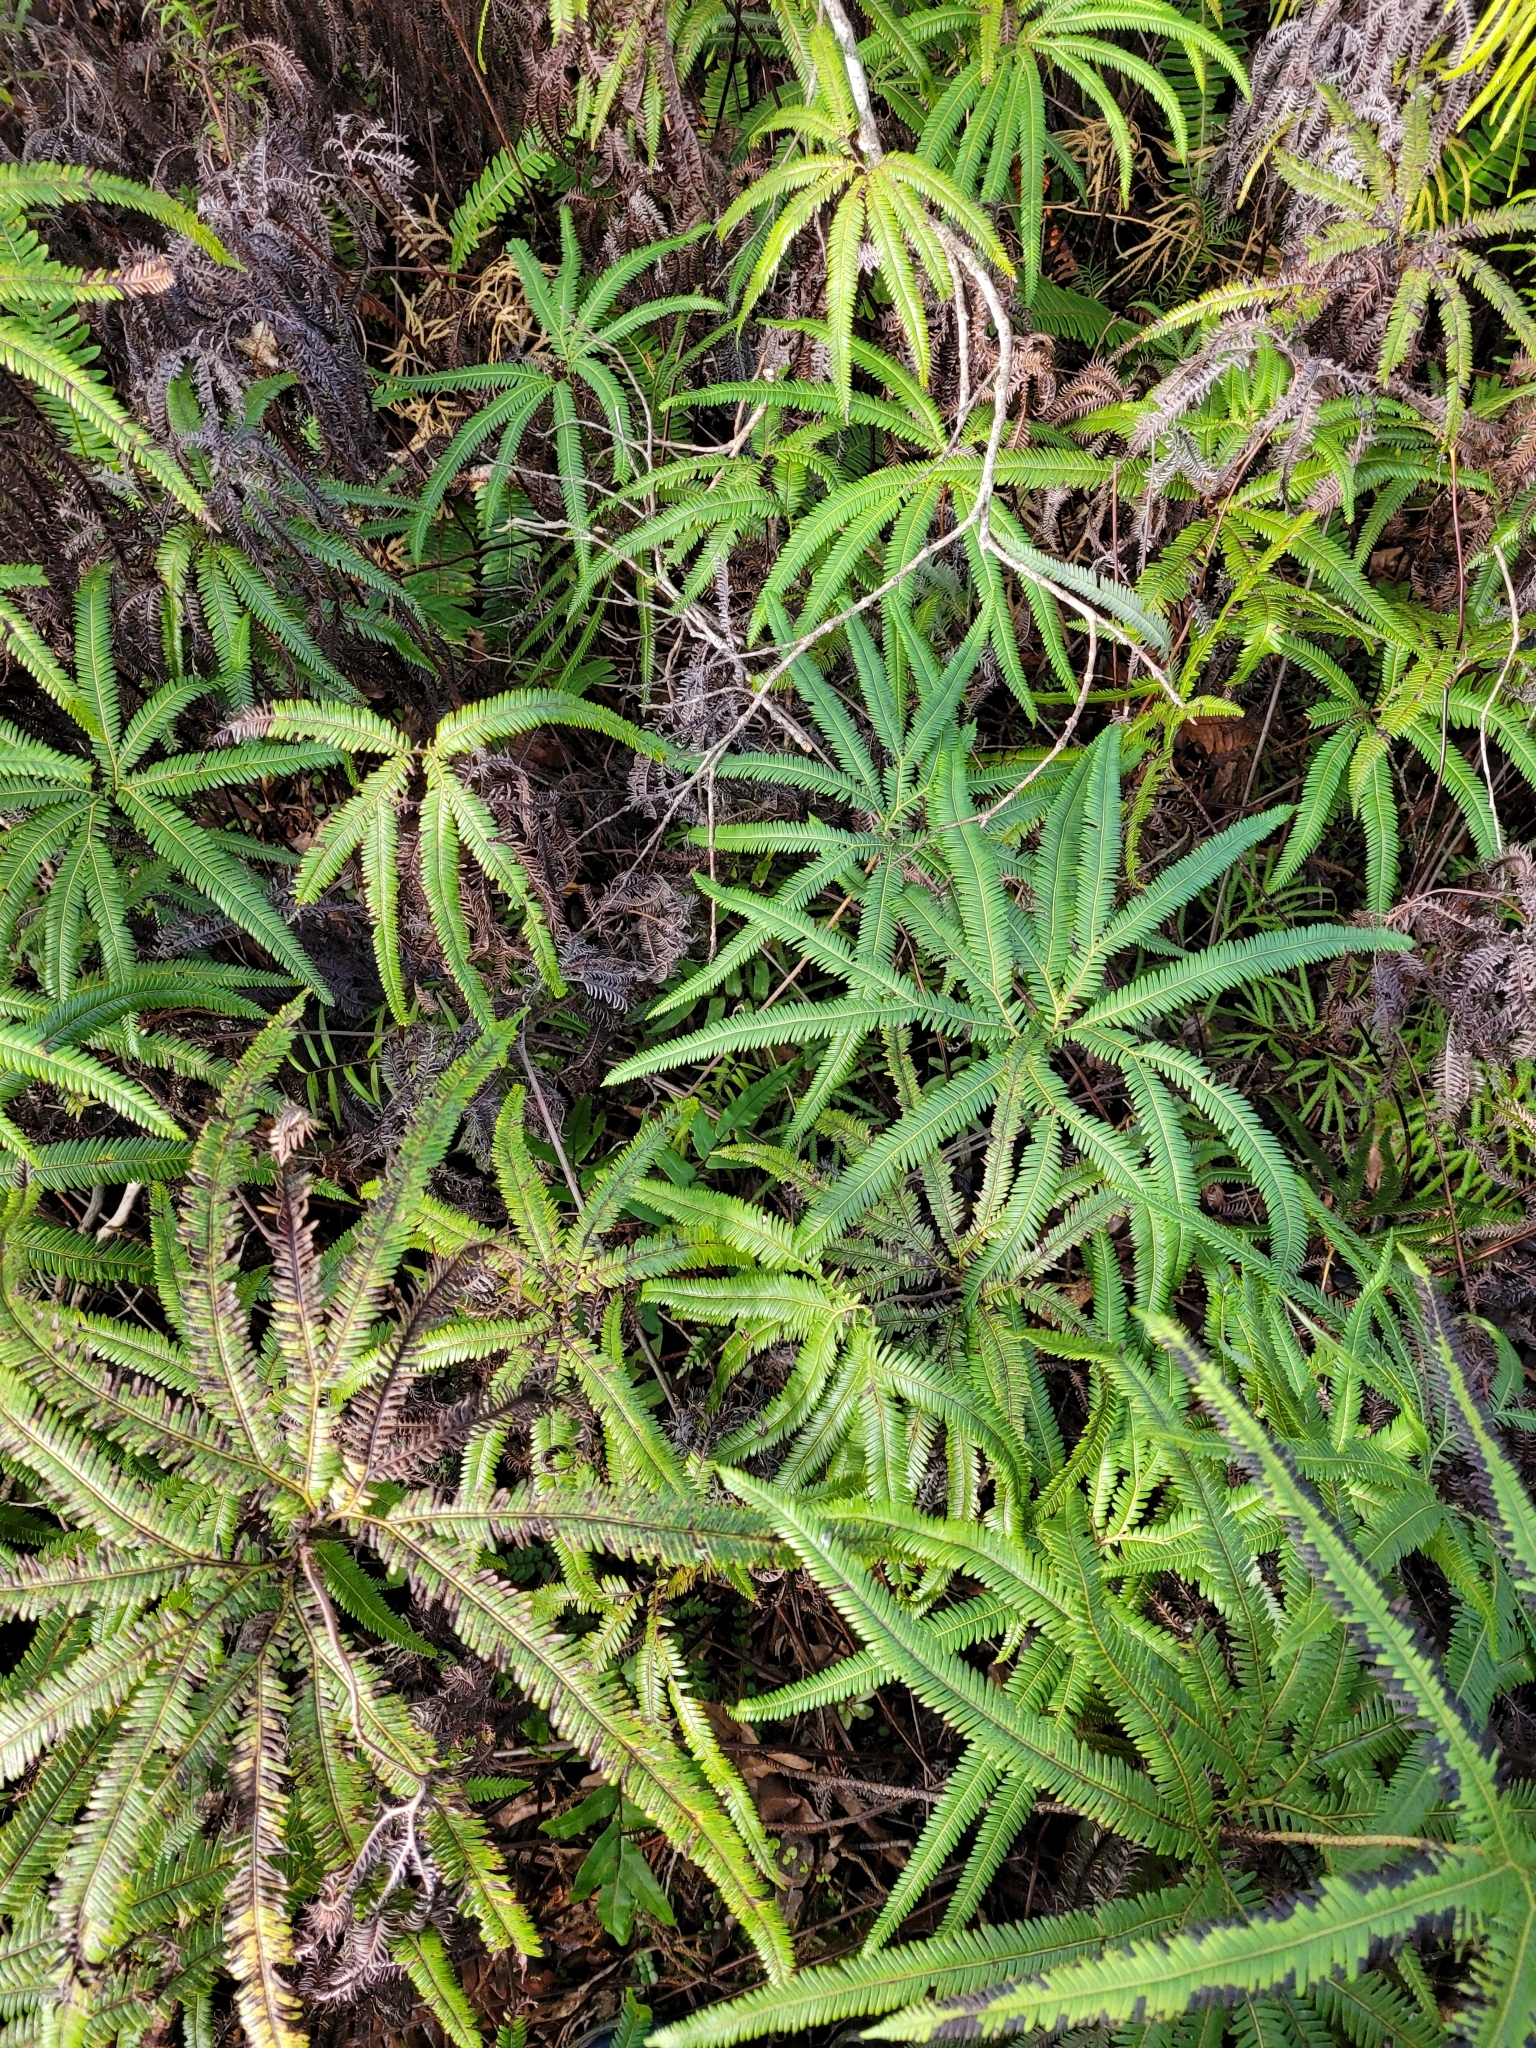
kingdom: Plantae
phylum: Tracheophyta
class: Polypodiopsida
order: Gleicheniales
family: Gleicheniaceae
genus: Sticherus
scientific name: Sticherus cunninghamii
